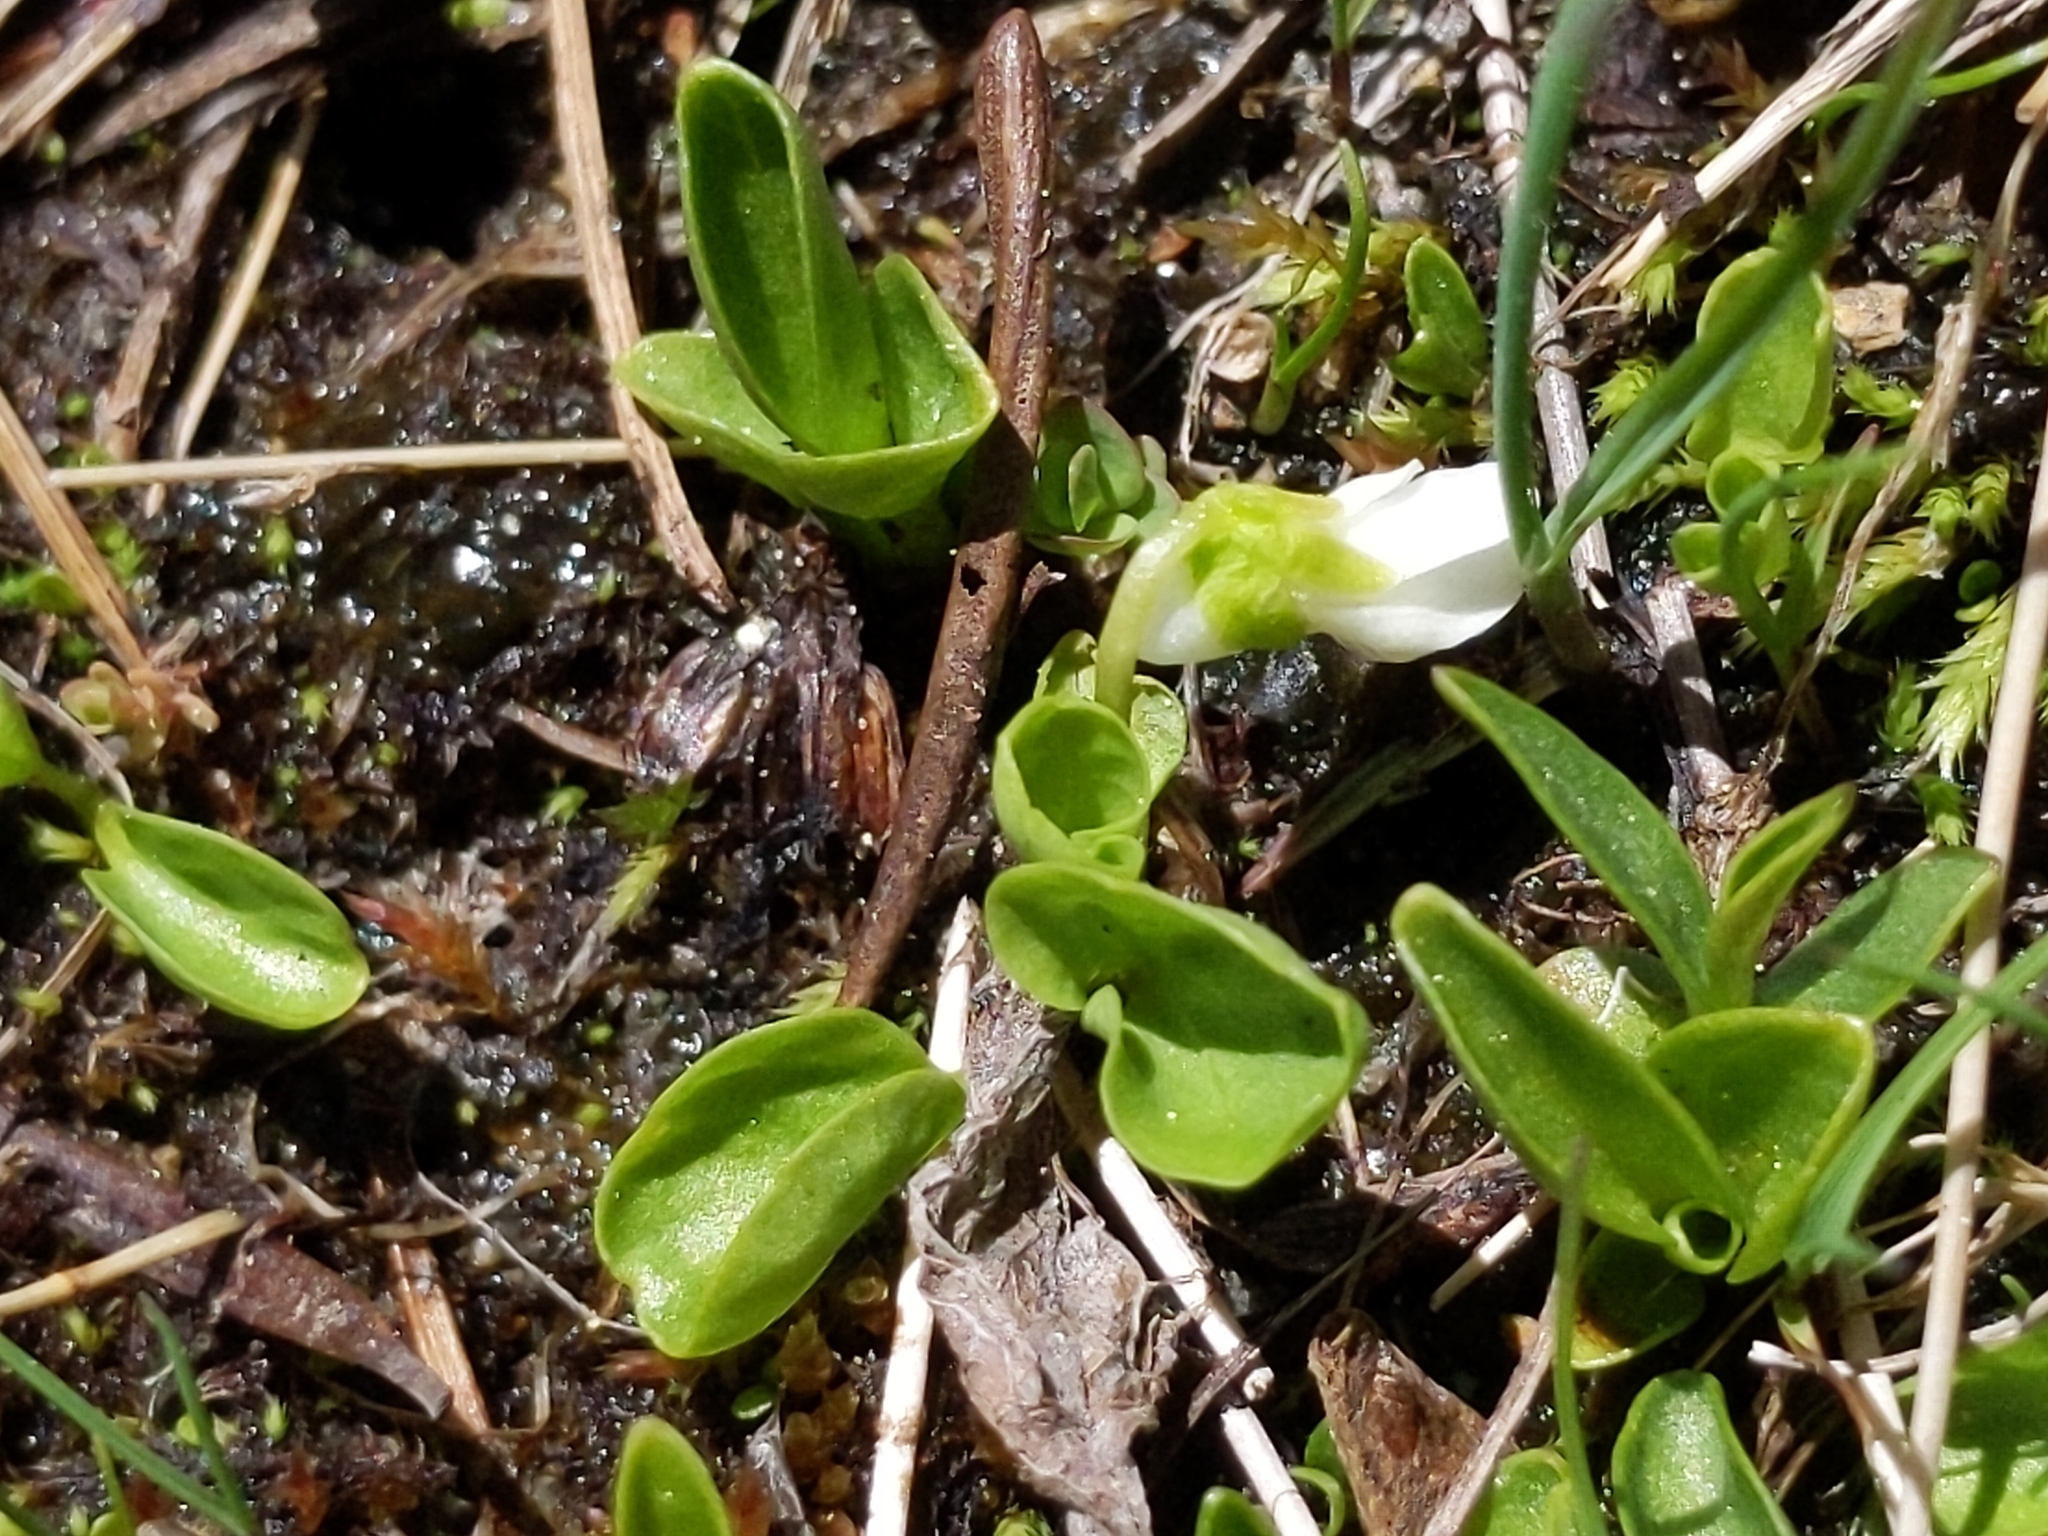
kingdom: Plantae
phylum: Tracheophyta
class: Magnoliopsida
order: Malpighiales
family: Violaceae
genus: Viola
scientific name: Viola macloskeyi
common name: Macloskey's violet
